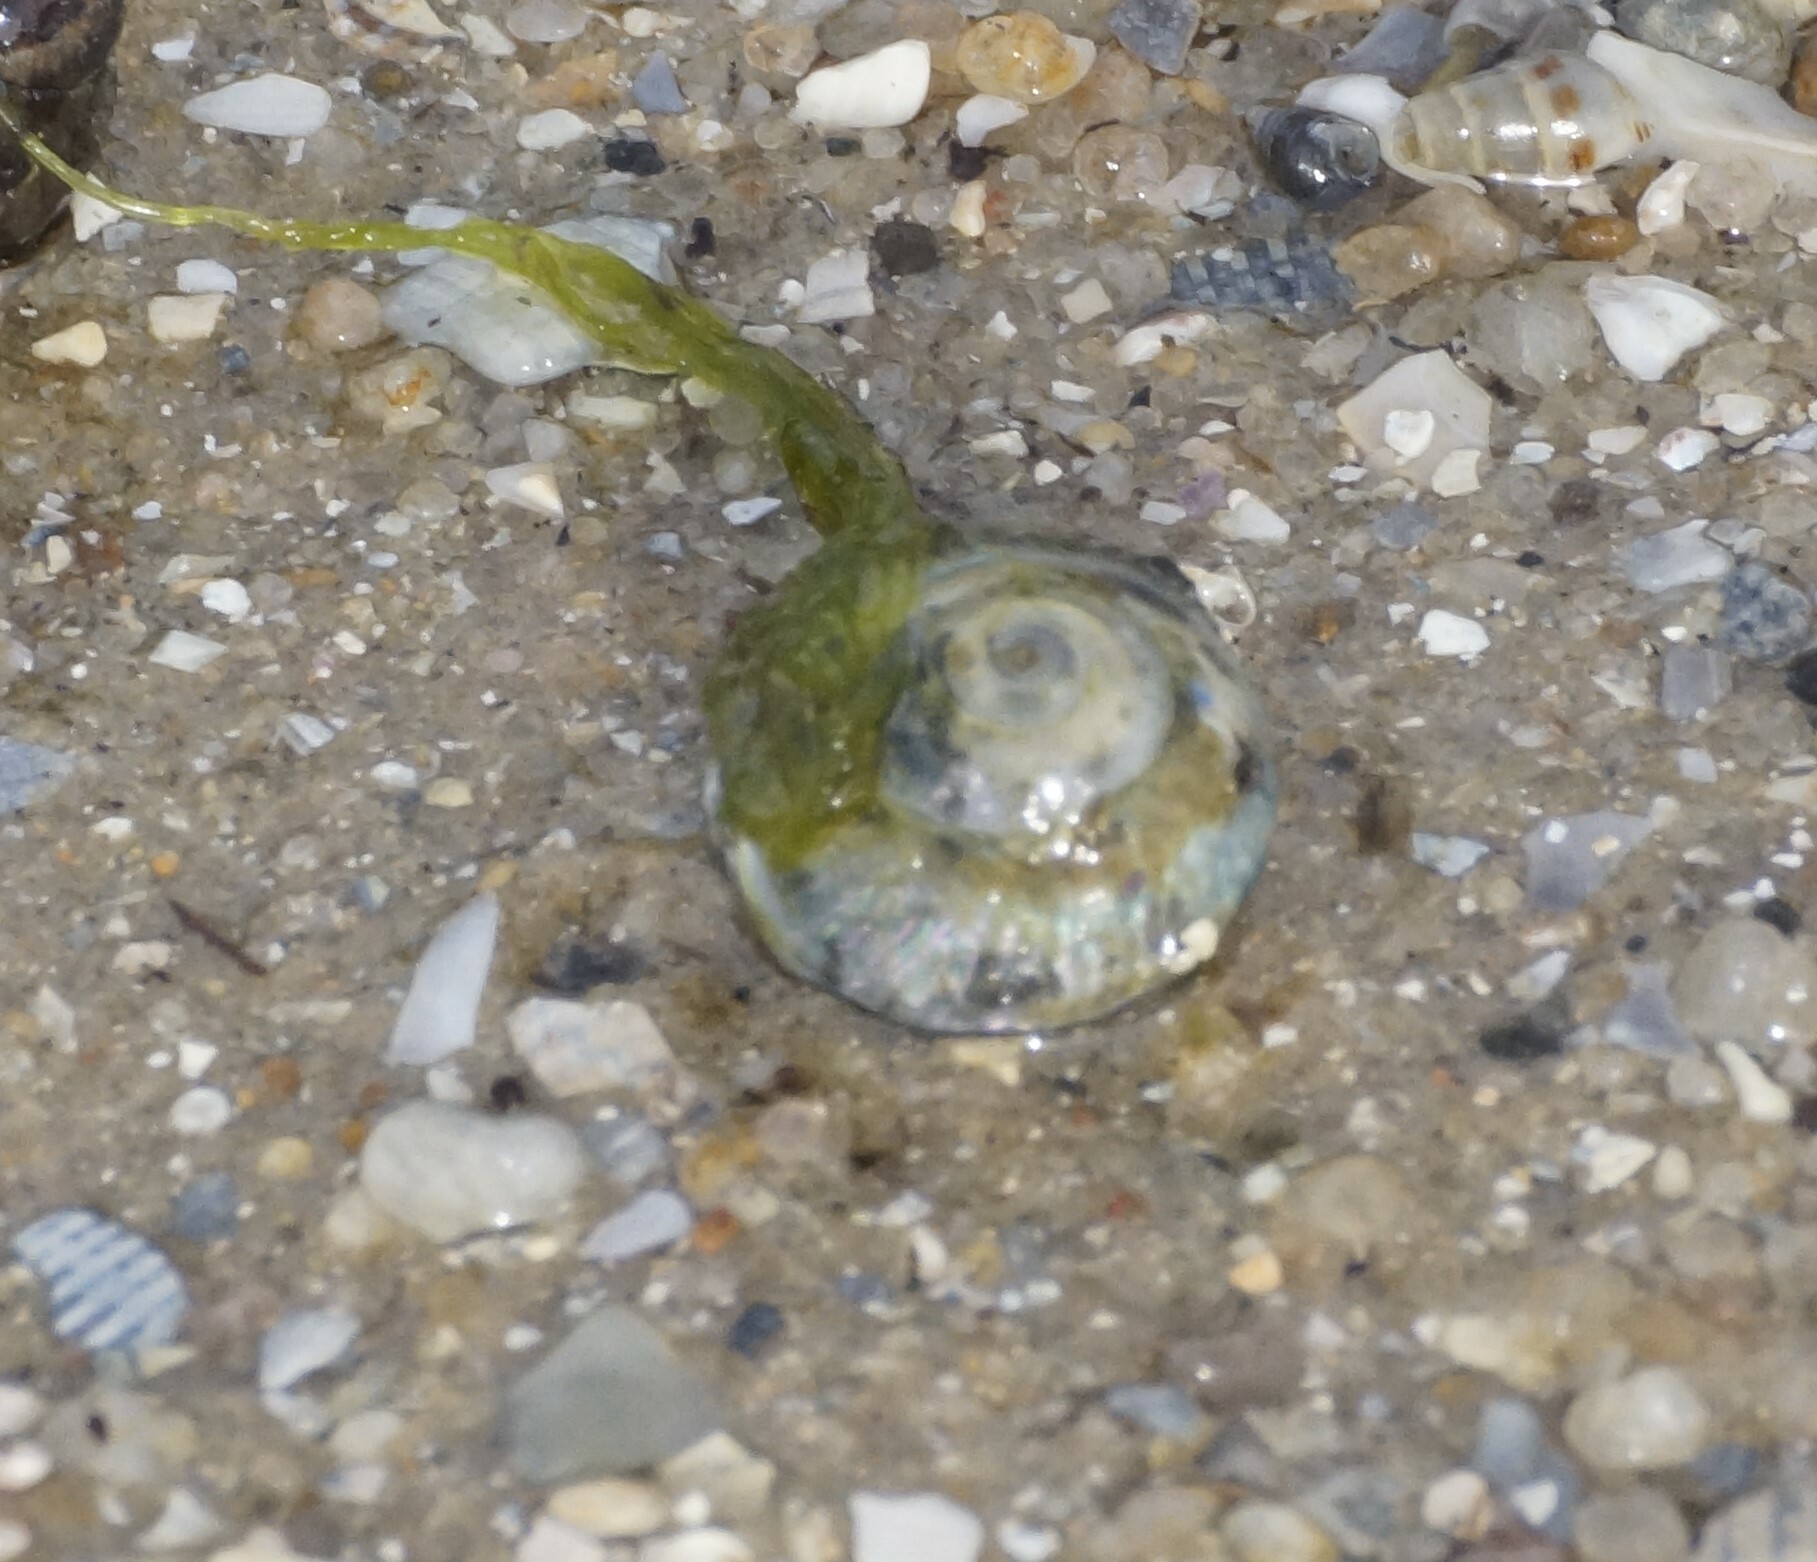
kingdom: Animalia
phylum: Mollusca
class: Gastropoda
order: Trochida
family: Turbinidae
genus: Bellastraea
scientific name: Bellastraea aurea
